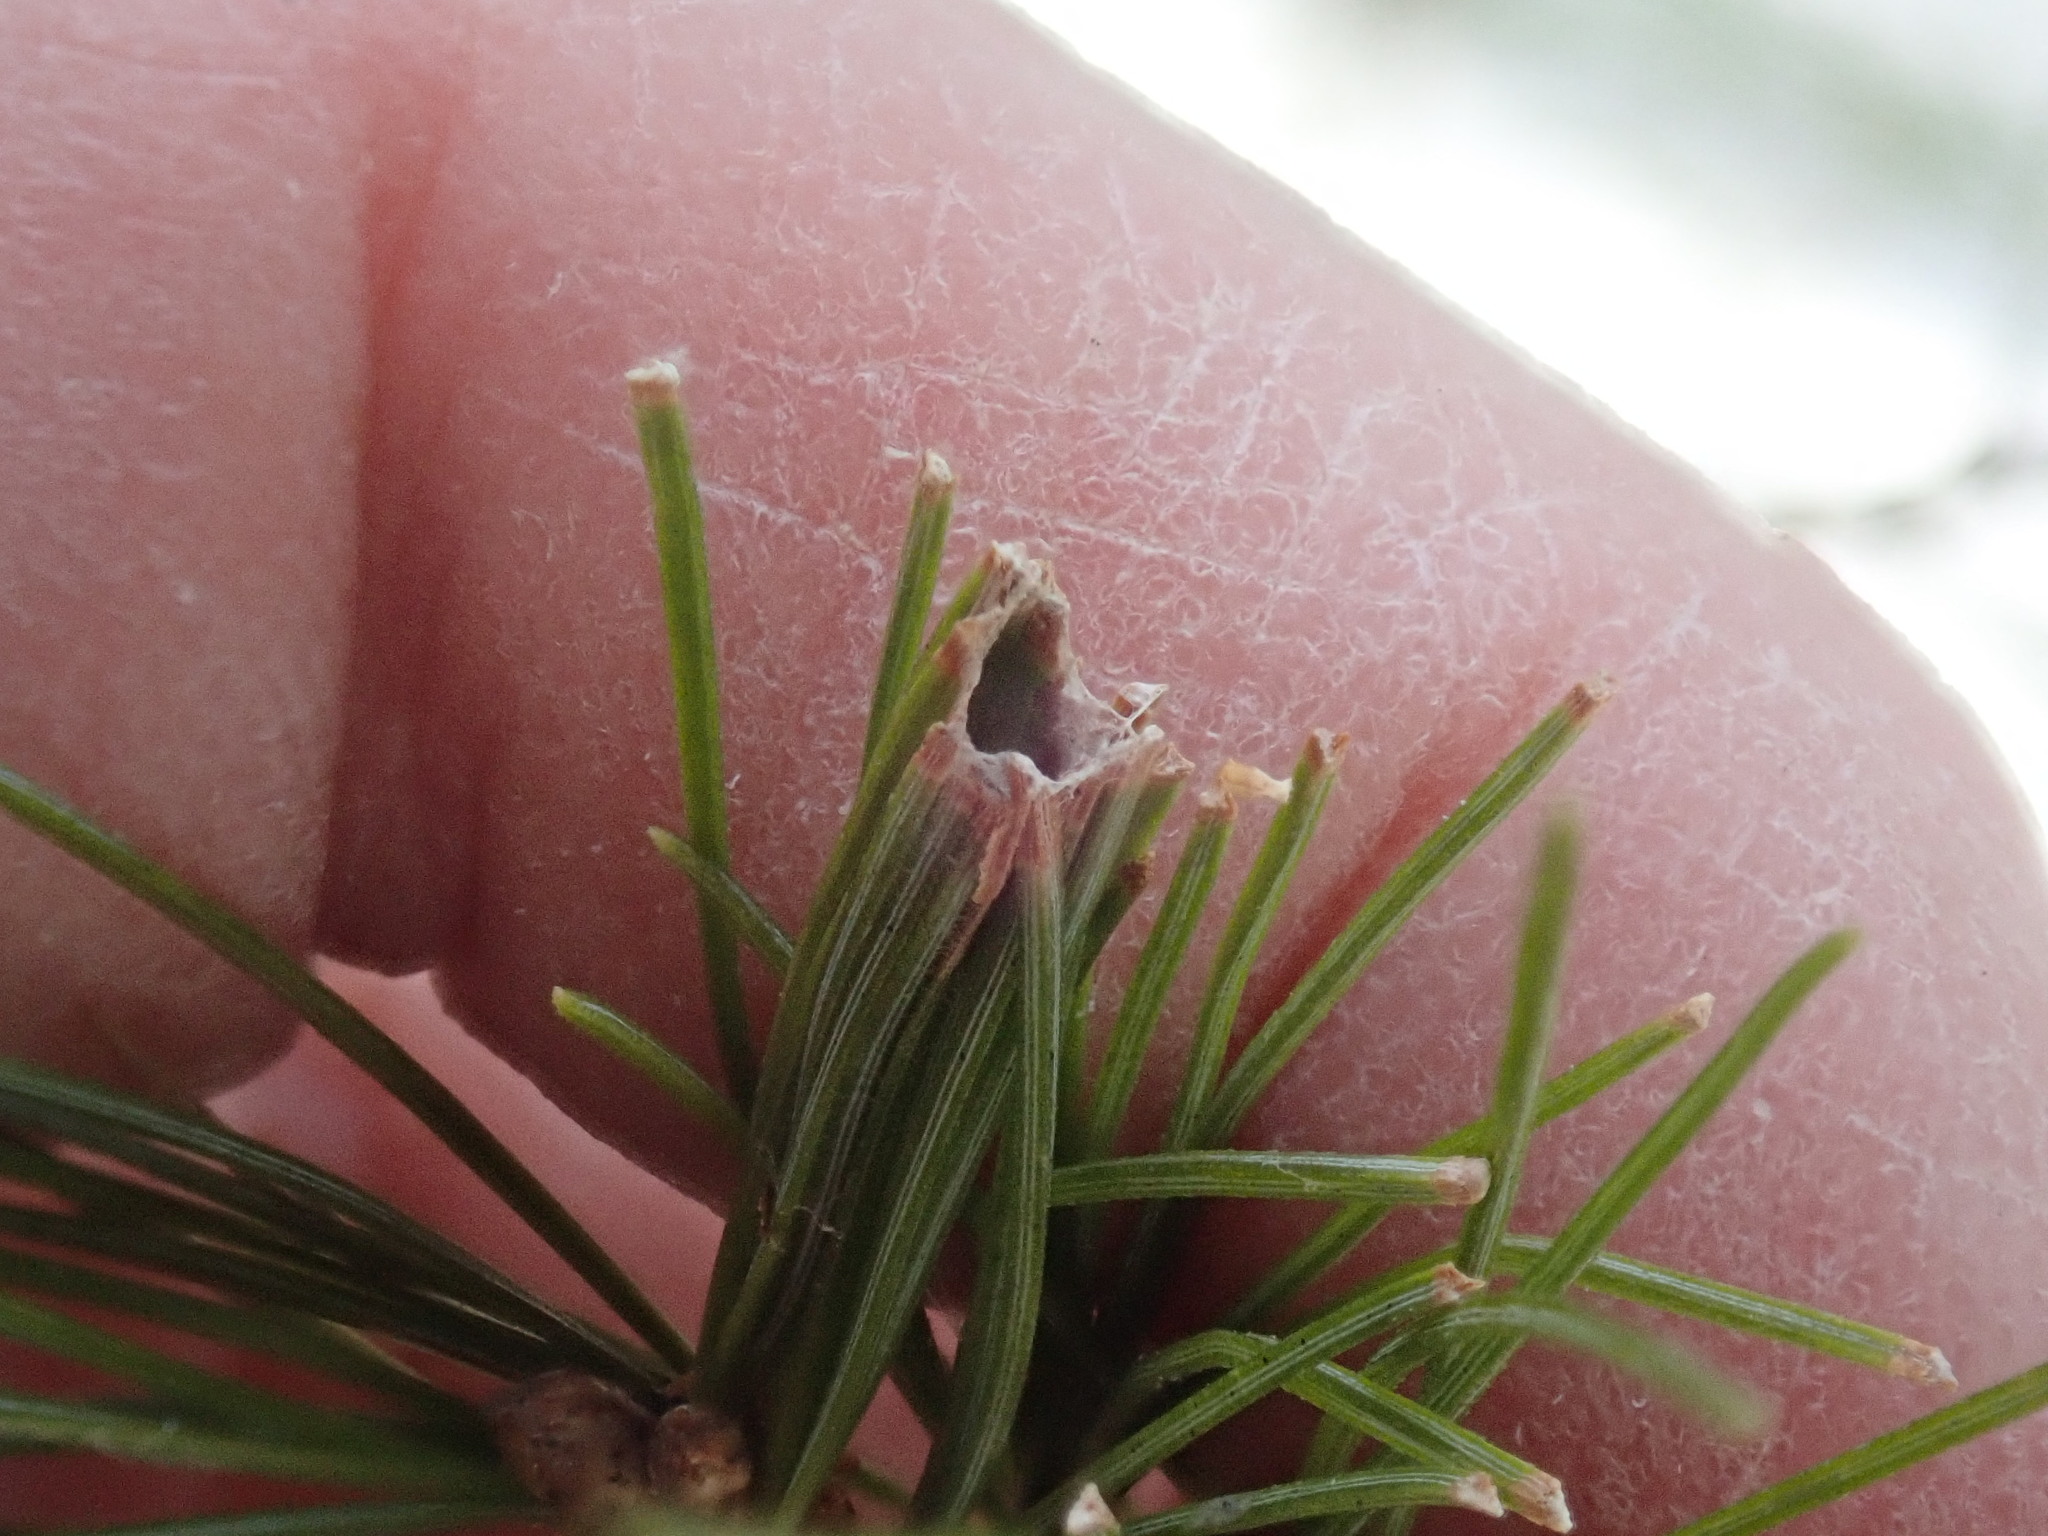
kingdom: Animalia
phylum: Arthropoda
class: Insecta
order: Lepidoptera
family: Tortricidae
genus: Argyrotaenia
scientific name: Argyrotaenia pinatubana
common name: Pine tube moth
